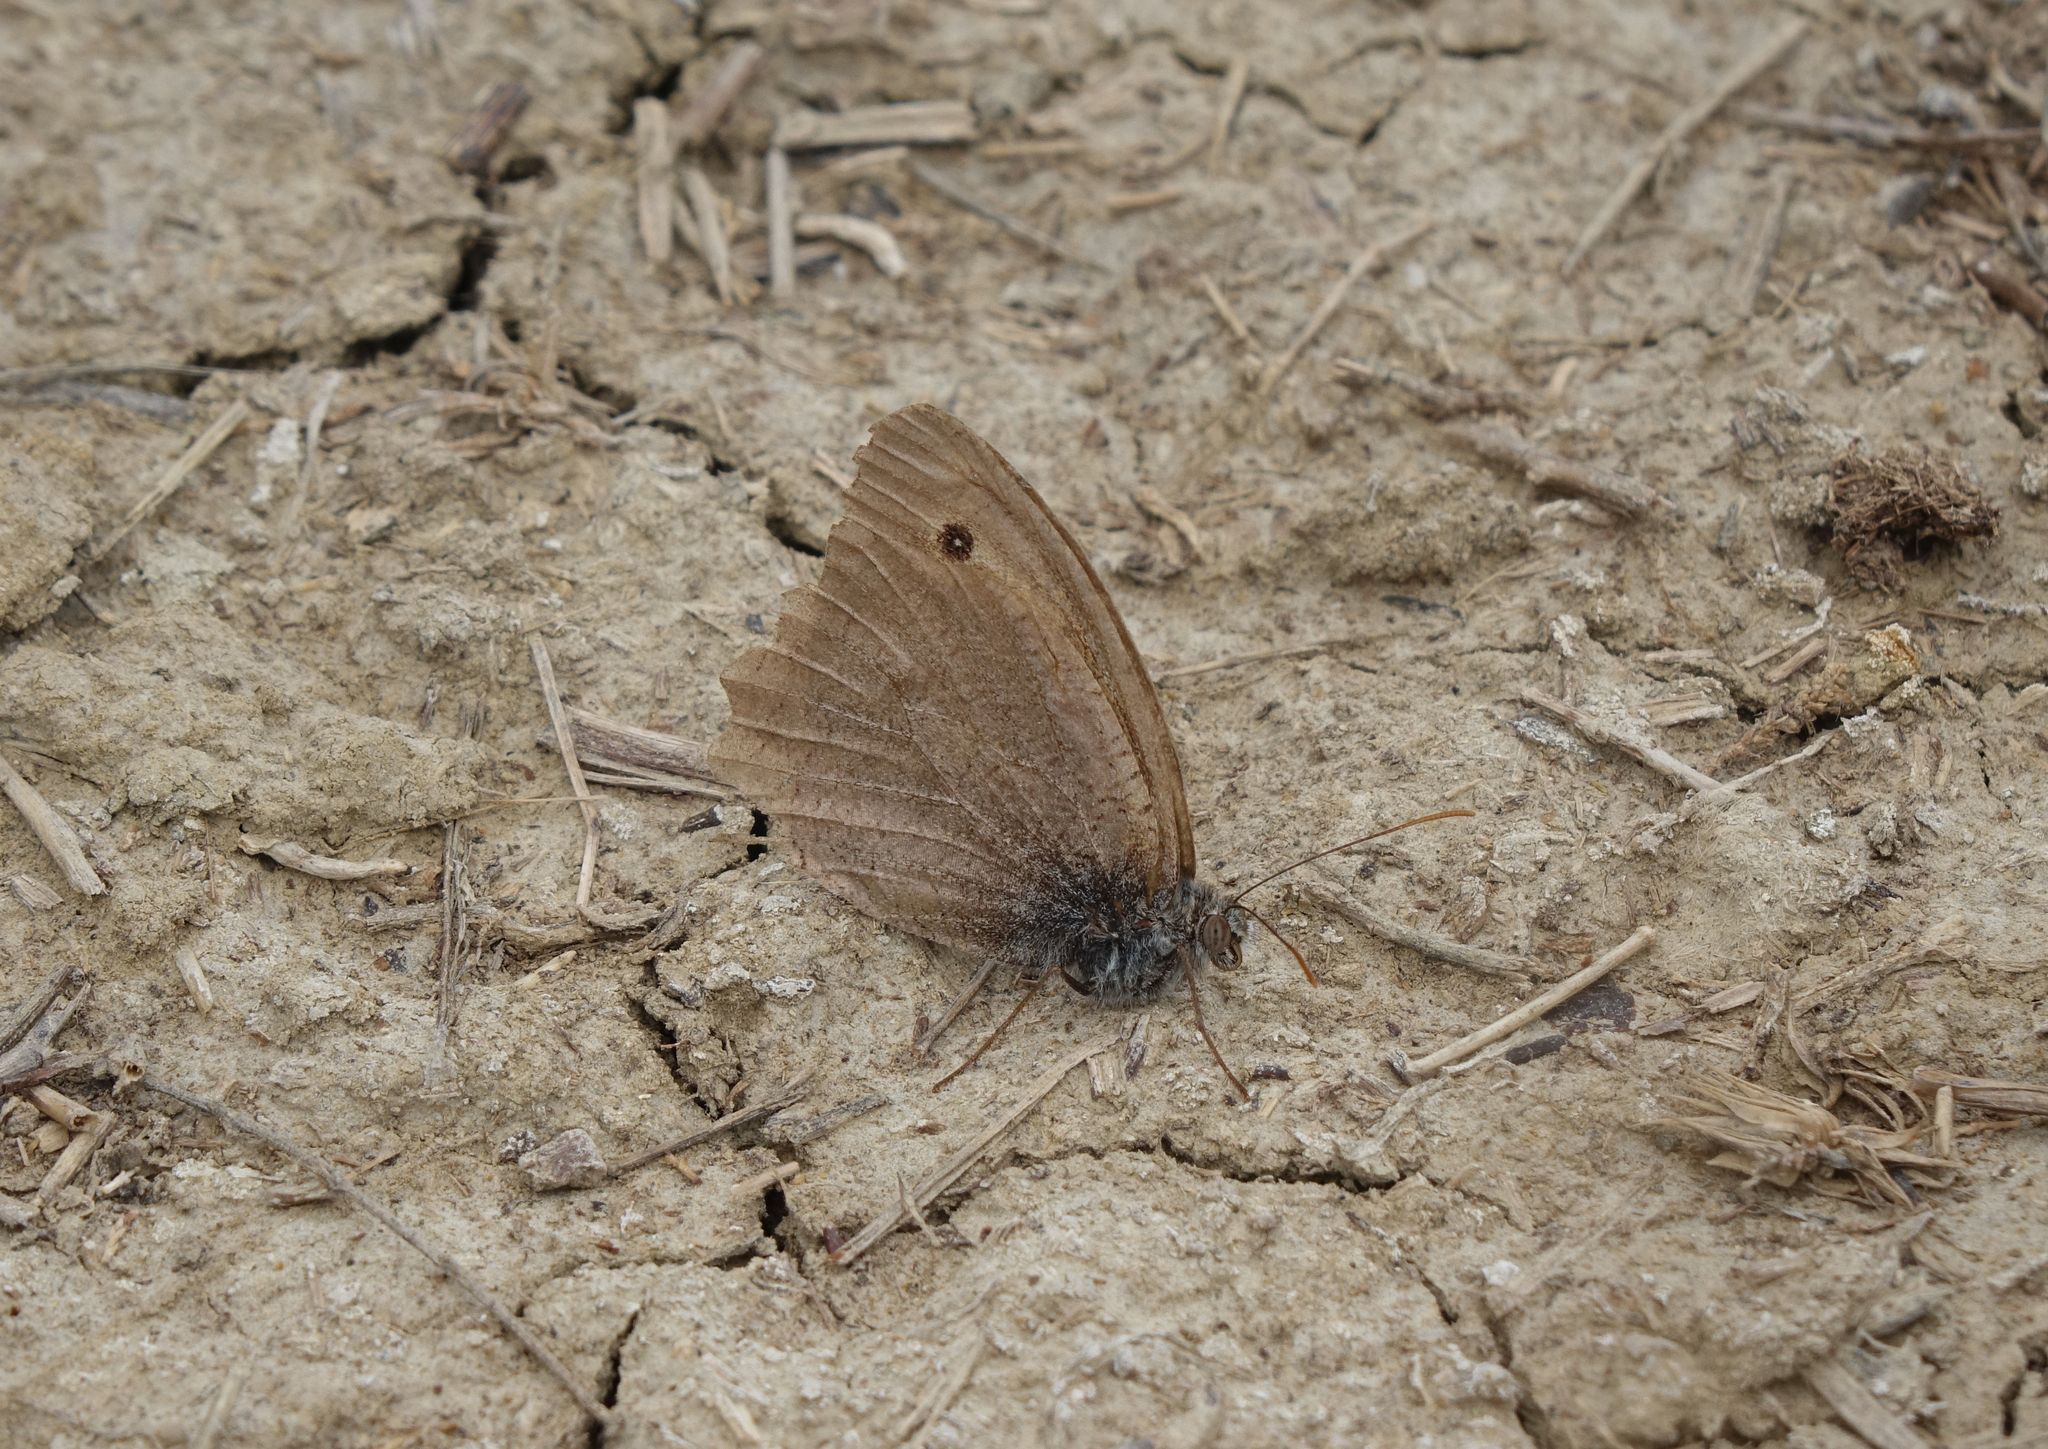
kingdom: Animalia
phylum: Arthropoda
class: Insecta
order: Lepidoptera
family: Nymphalidae
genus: Hyponephele
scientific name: Hyponephele lupinus
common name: Oriental meadow brown
